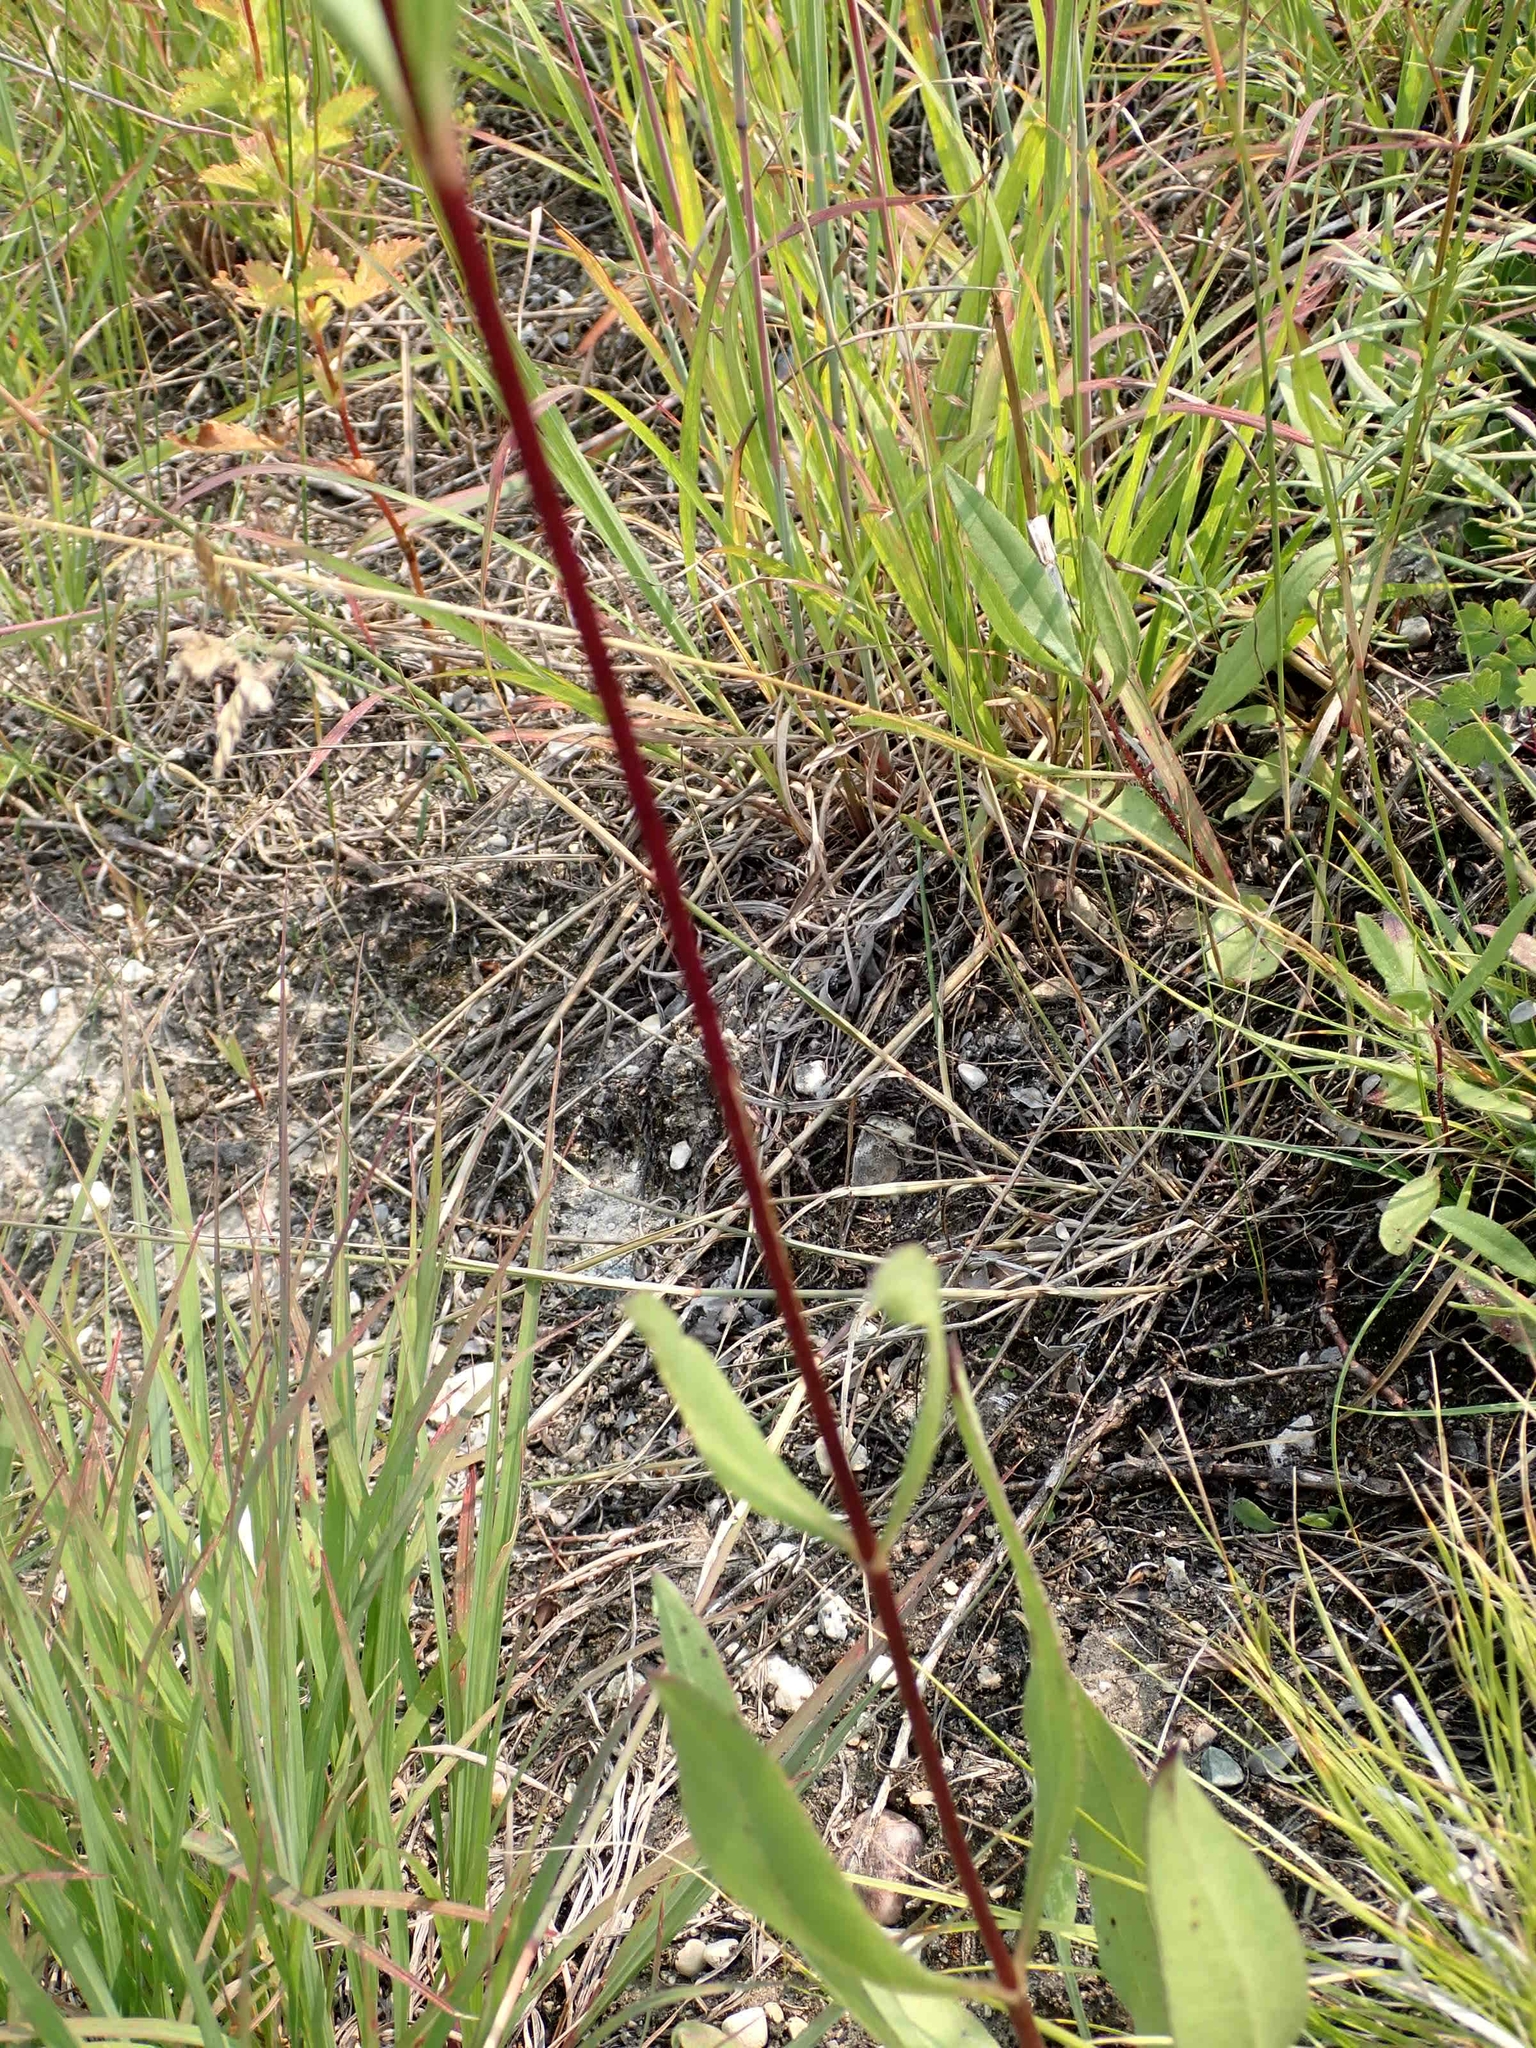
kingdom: Plantae
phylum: Tracheophyta
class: Magnoliopsida
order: Asterales
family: Asteraceae
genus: Helianthus
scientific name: Helianthus pauciflorus
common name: Stiff sunflower
